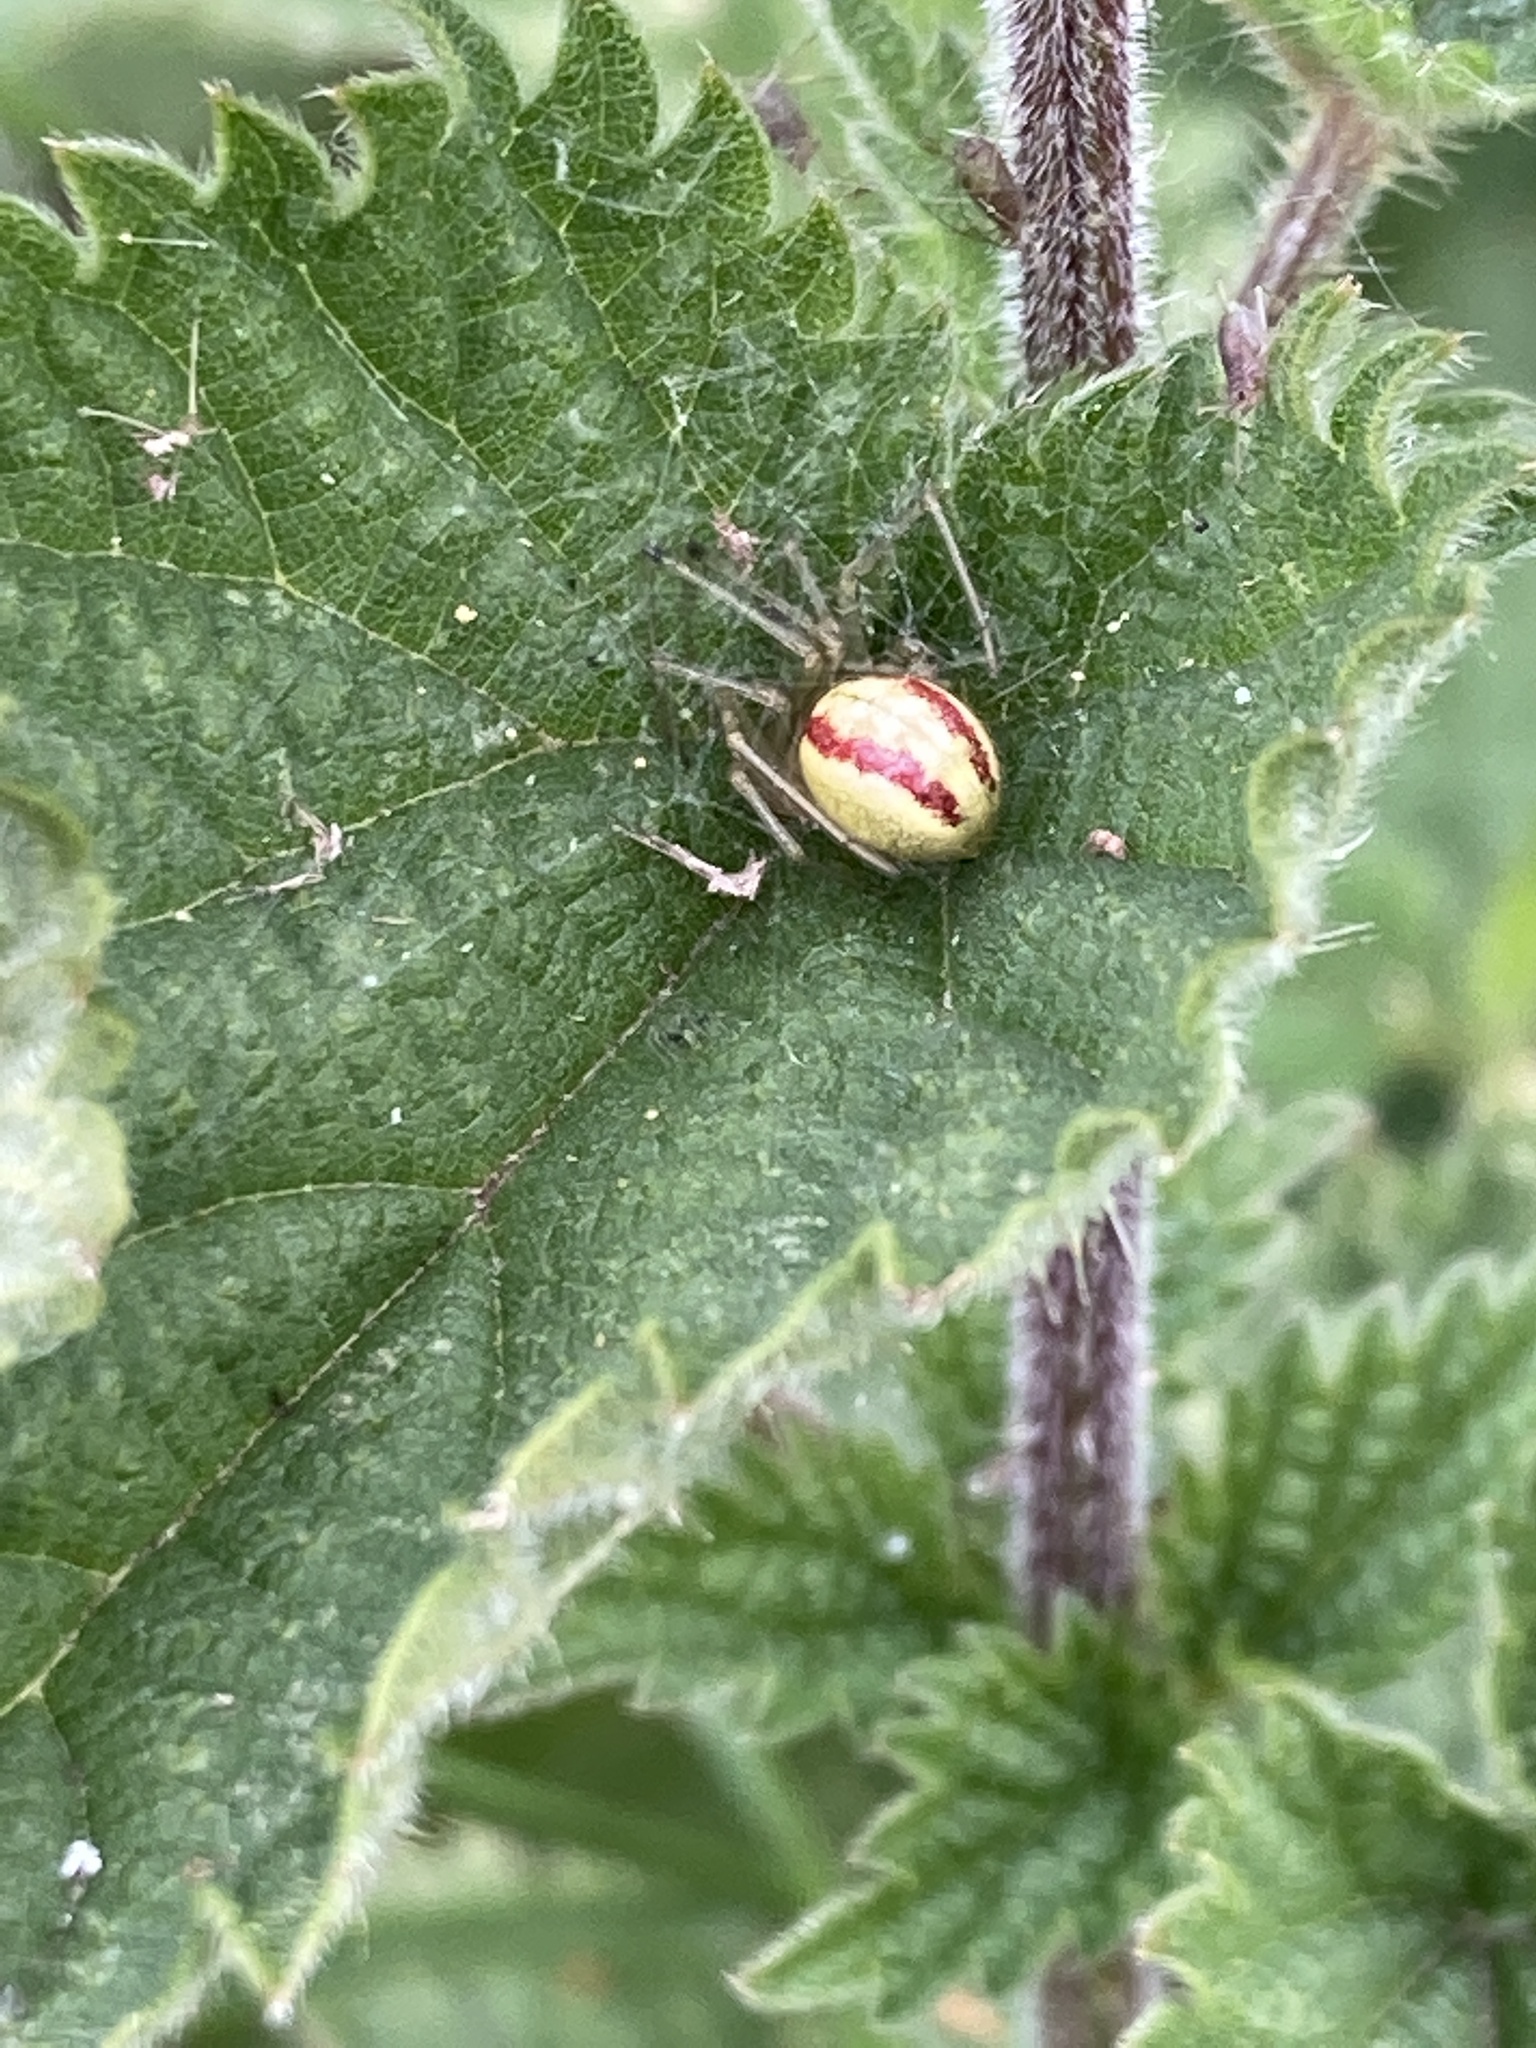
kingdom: Animalia
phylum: Arthropoda
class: Arachnida
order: Araneae
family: Theridiidae
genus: Enoplognatha
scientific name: Enoplognatha ovata
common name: Common candy-striped spider
